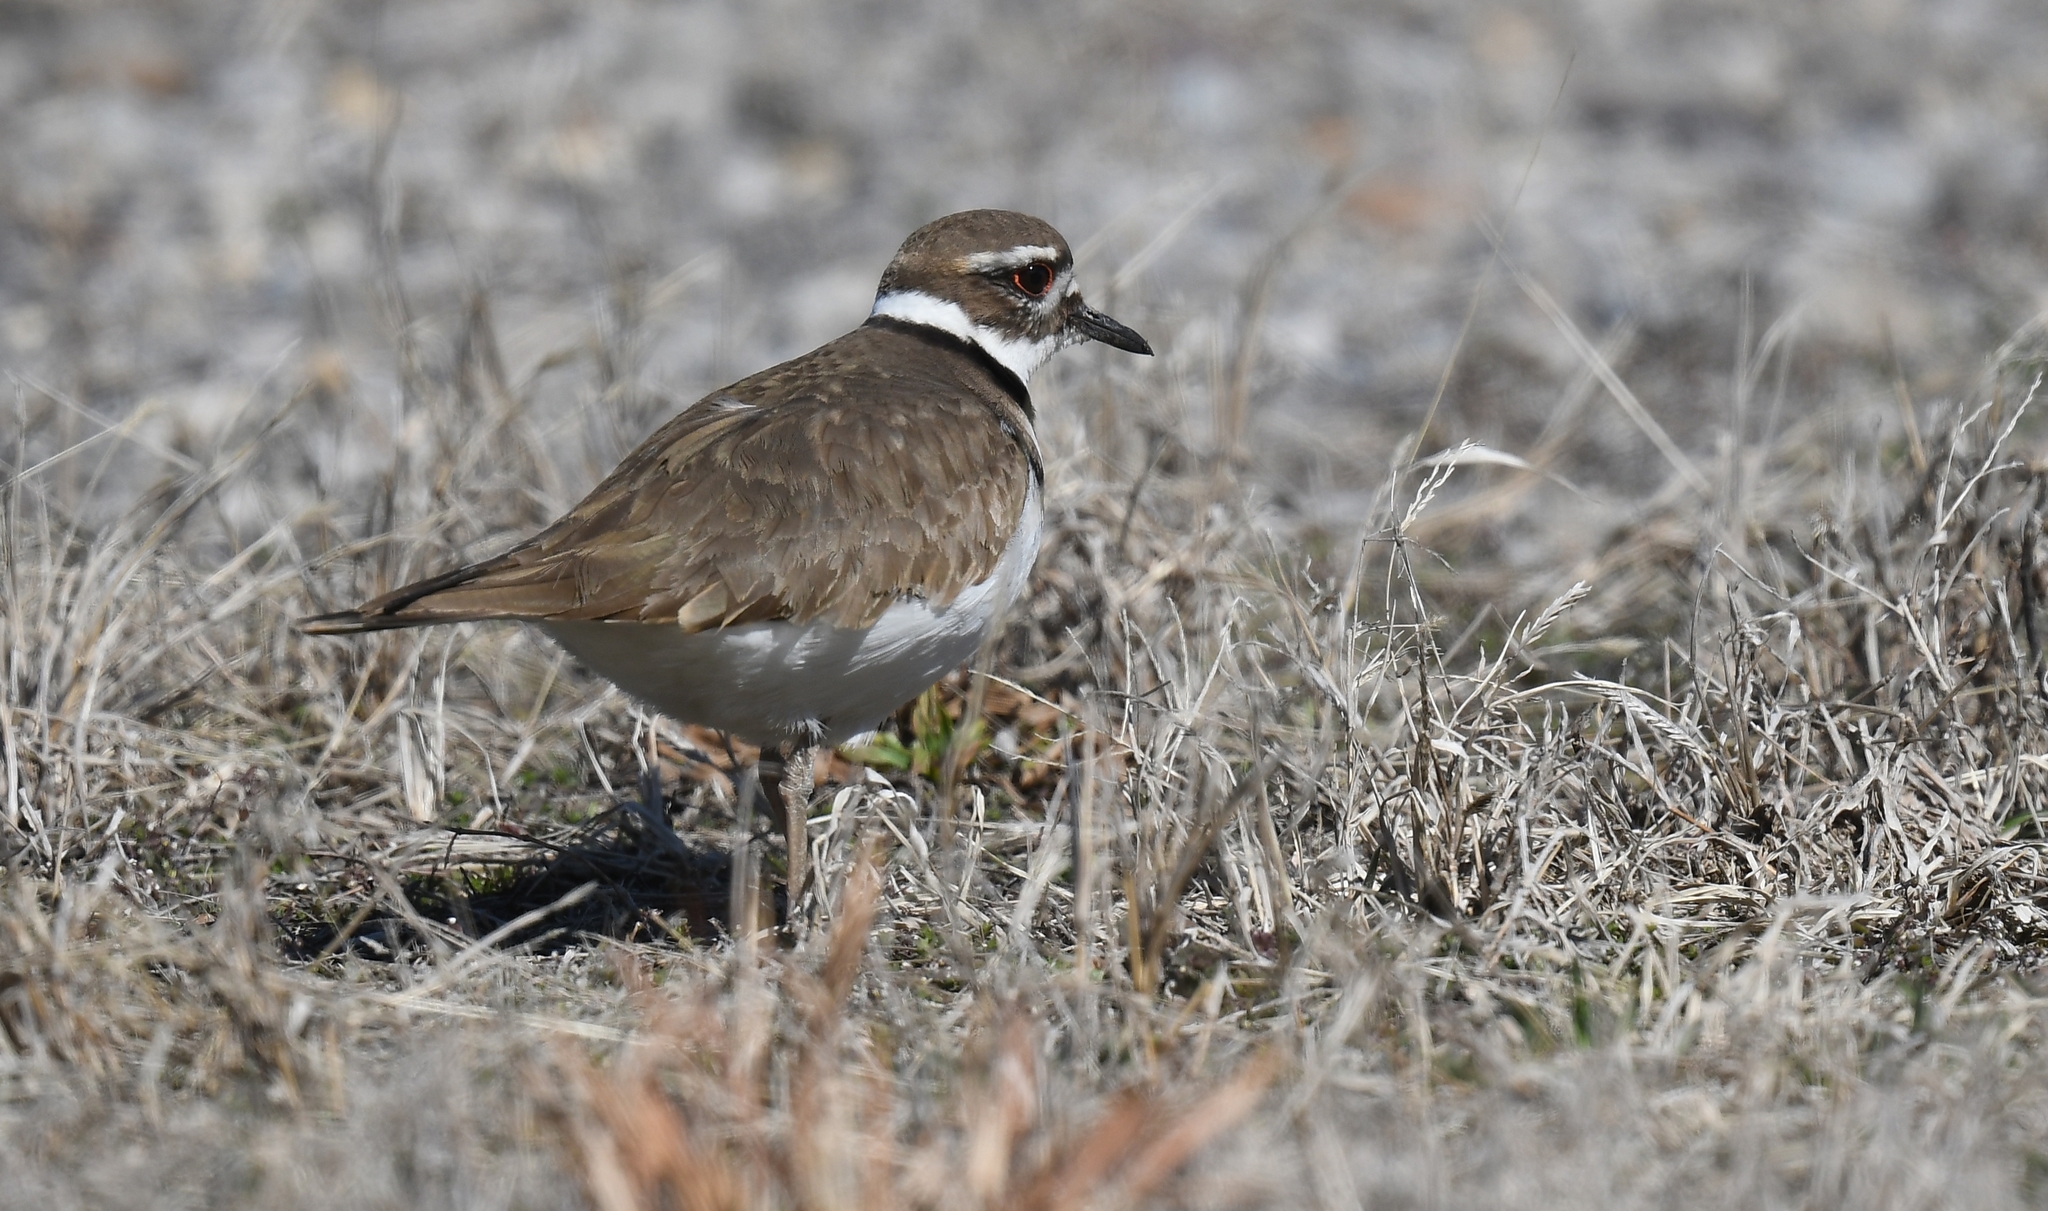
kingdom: Animalia
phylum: Chordata
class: Aves
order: Charadriiformes
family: Charadriidae
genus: Charadrius
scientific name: Charadrius vociferus
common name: Killdeer
